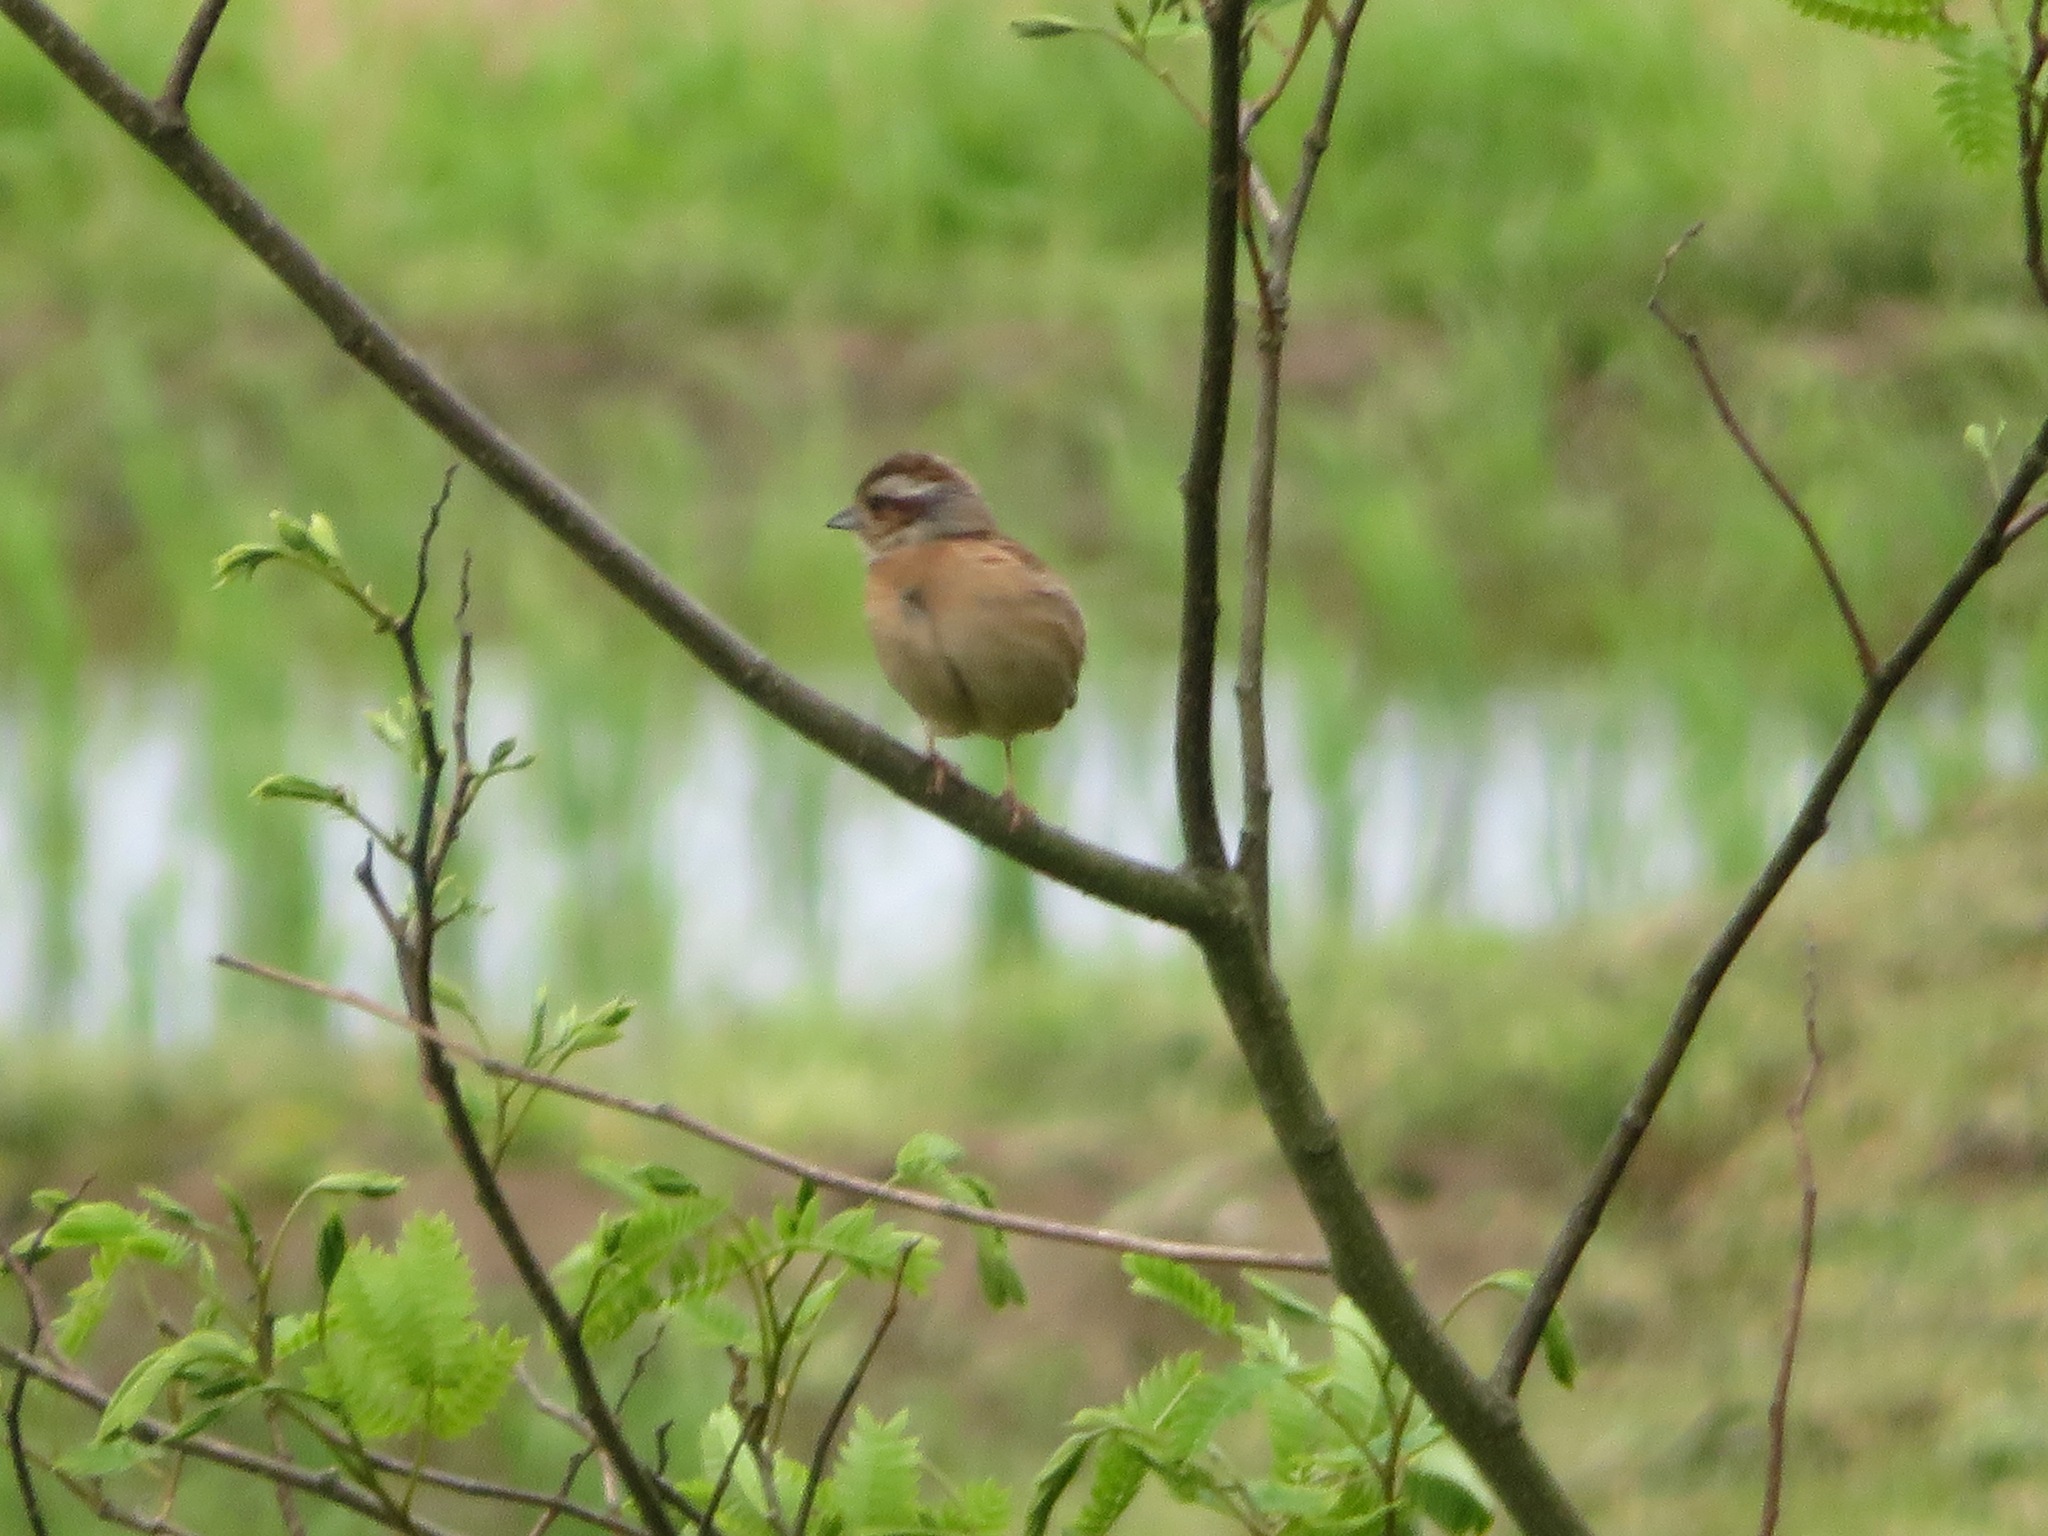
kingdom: Animalia
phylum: Chordata
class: Aves
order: Passeriformes
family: Emberizidae
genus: Emberiza
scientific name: Emberiza cioides
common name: Meadow bunting
